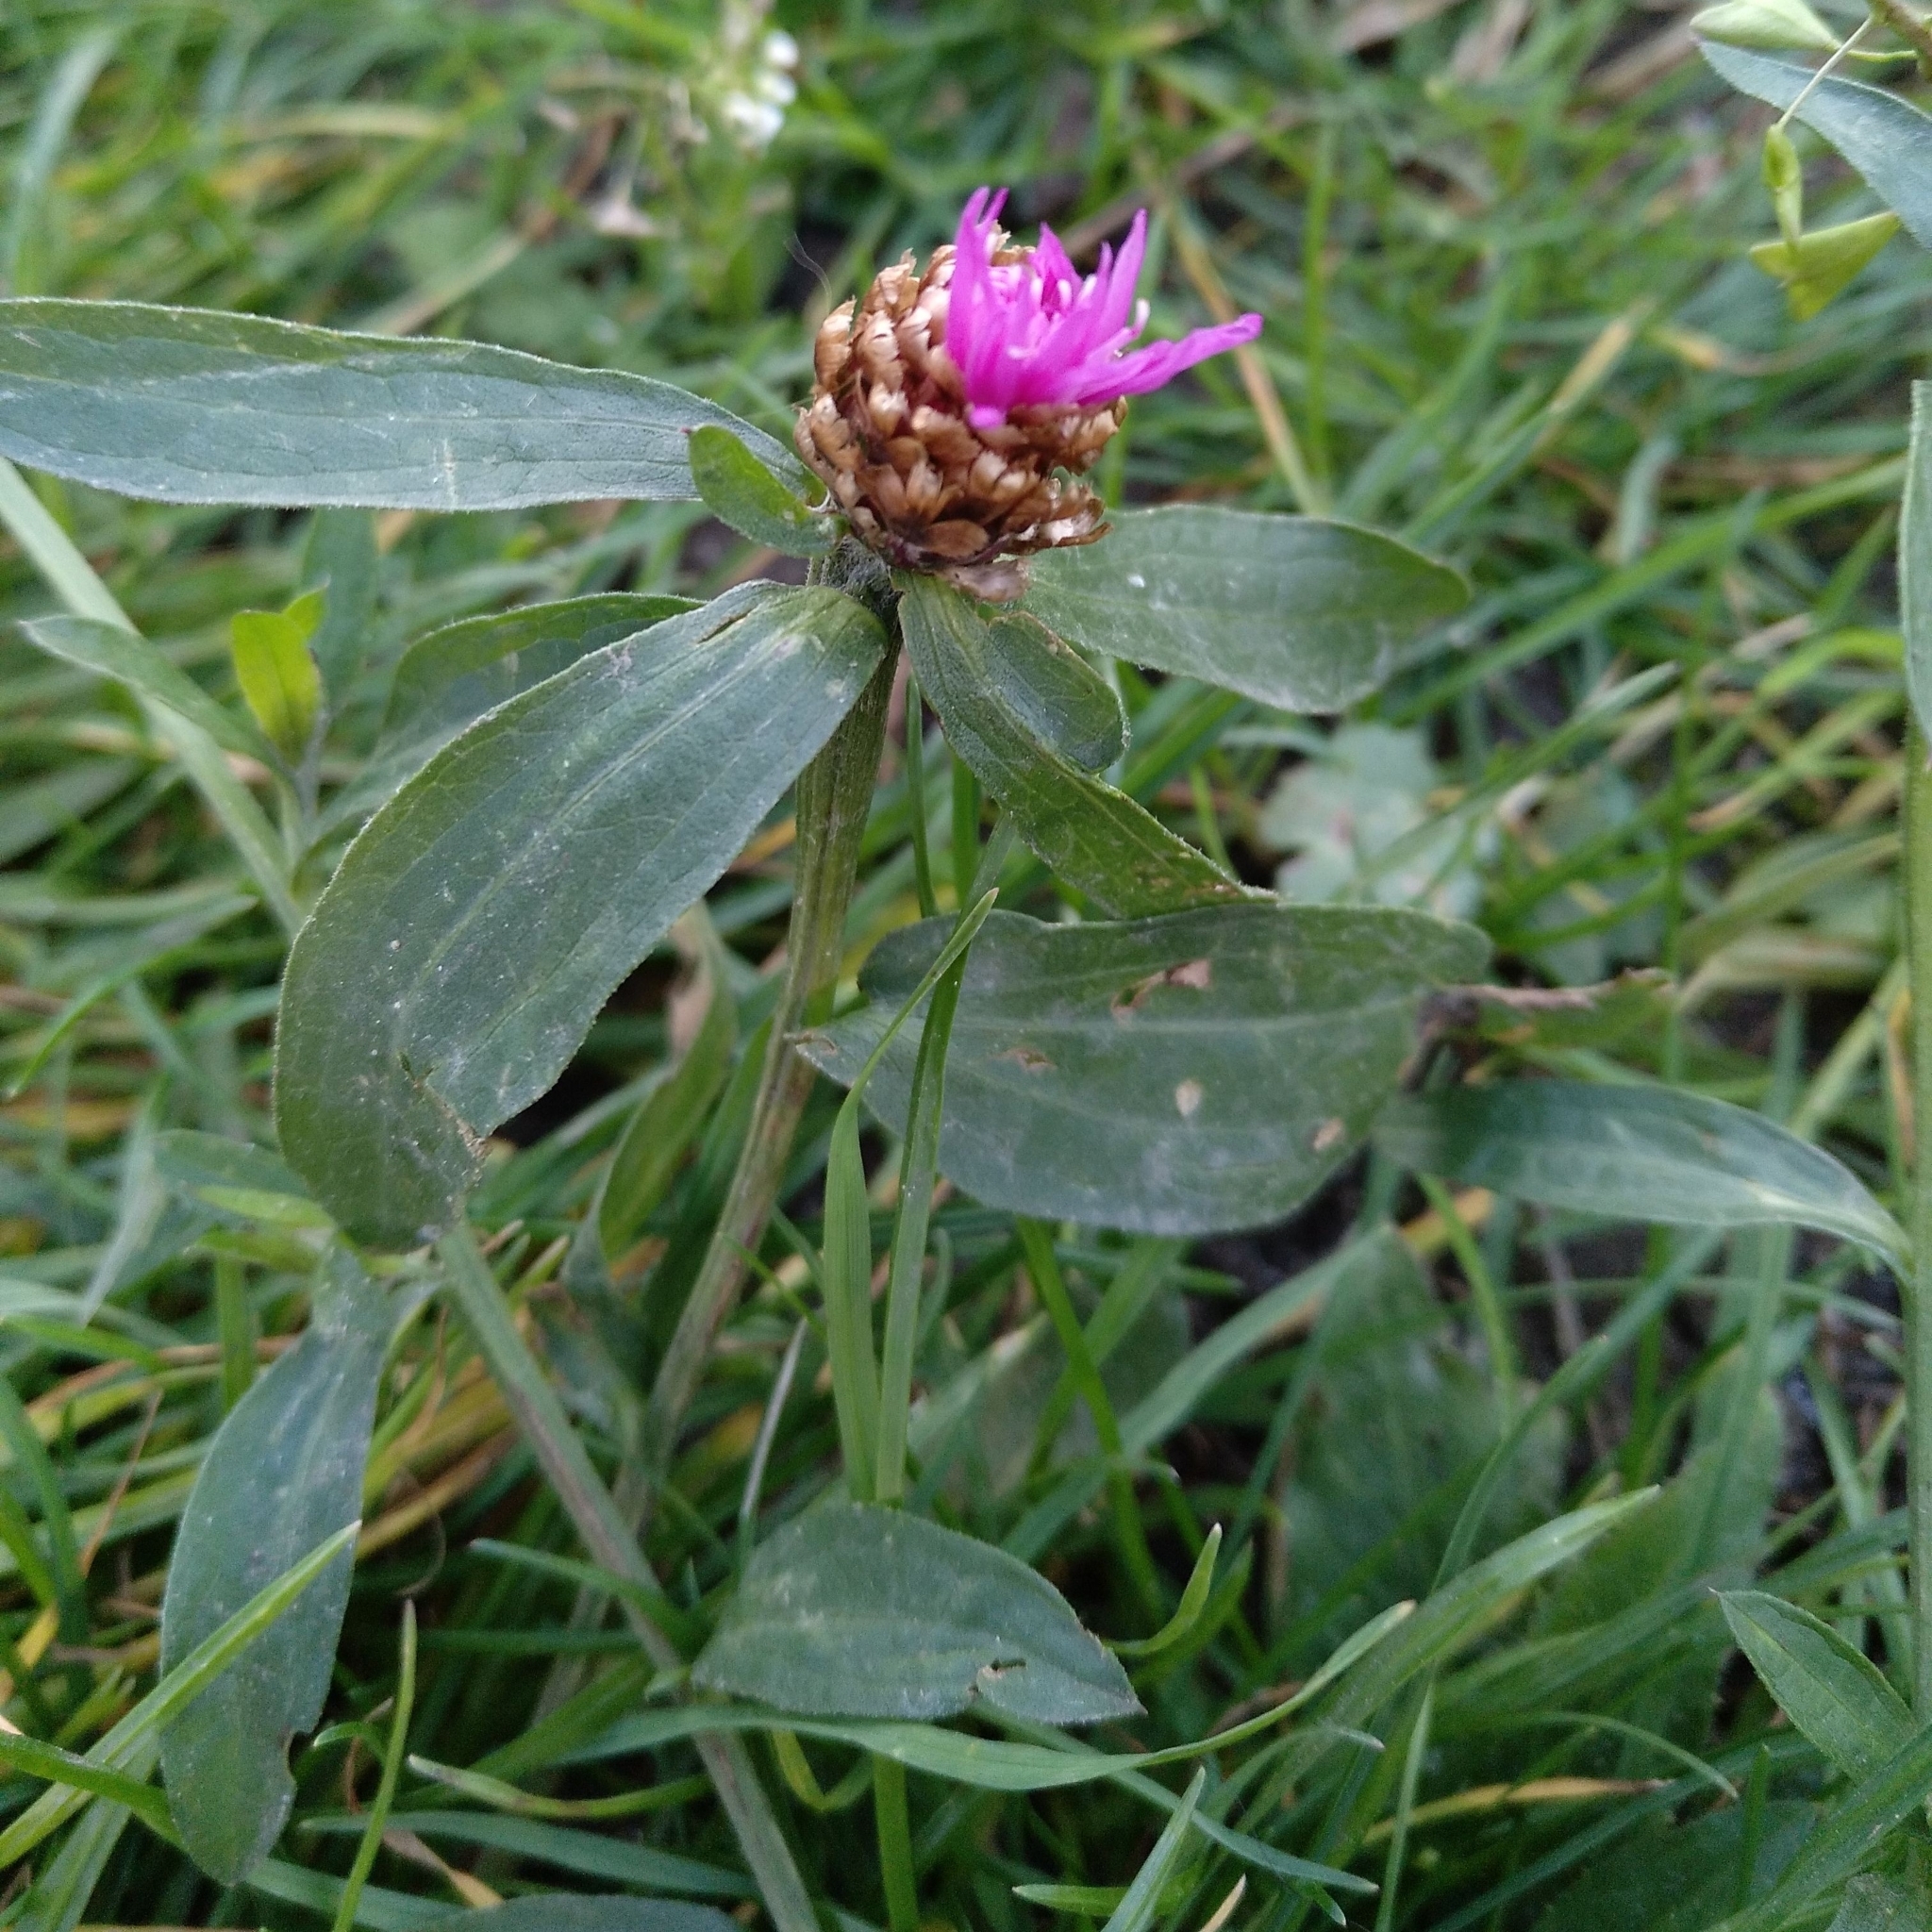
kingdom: Plantae
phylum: Tracheophyta
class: Magnoliopsida
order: Asterales
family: Asteraceae
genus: Centaurea
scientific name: Centaurea jacea
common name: Brown knapweed
